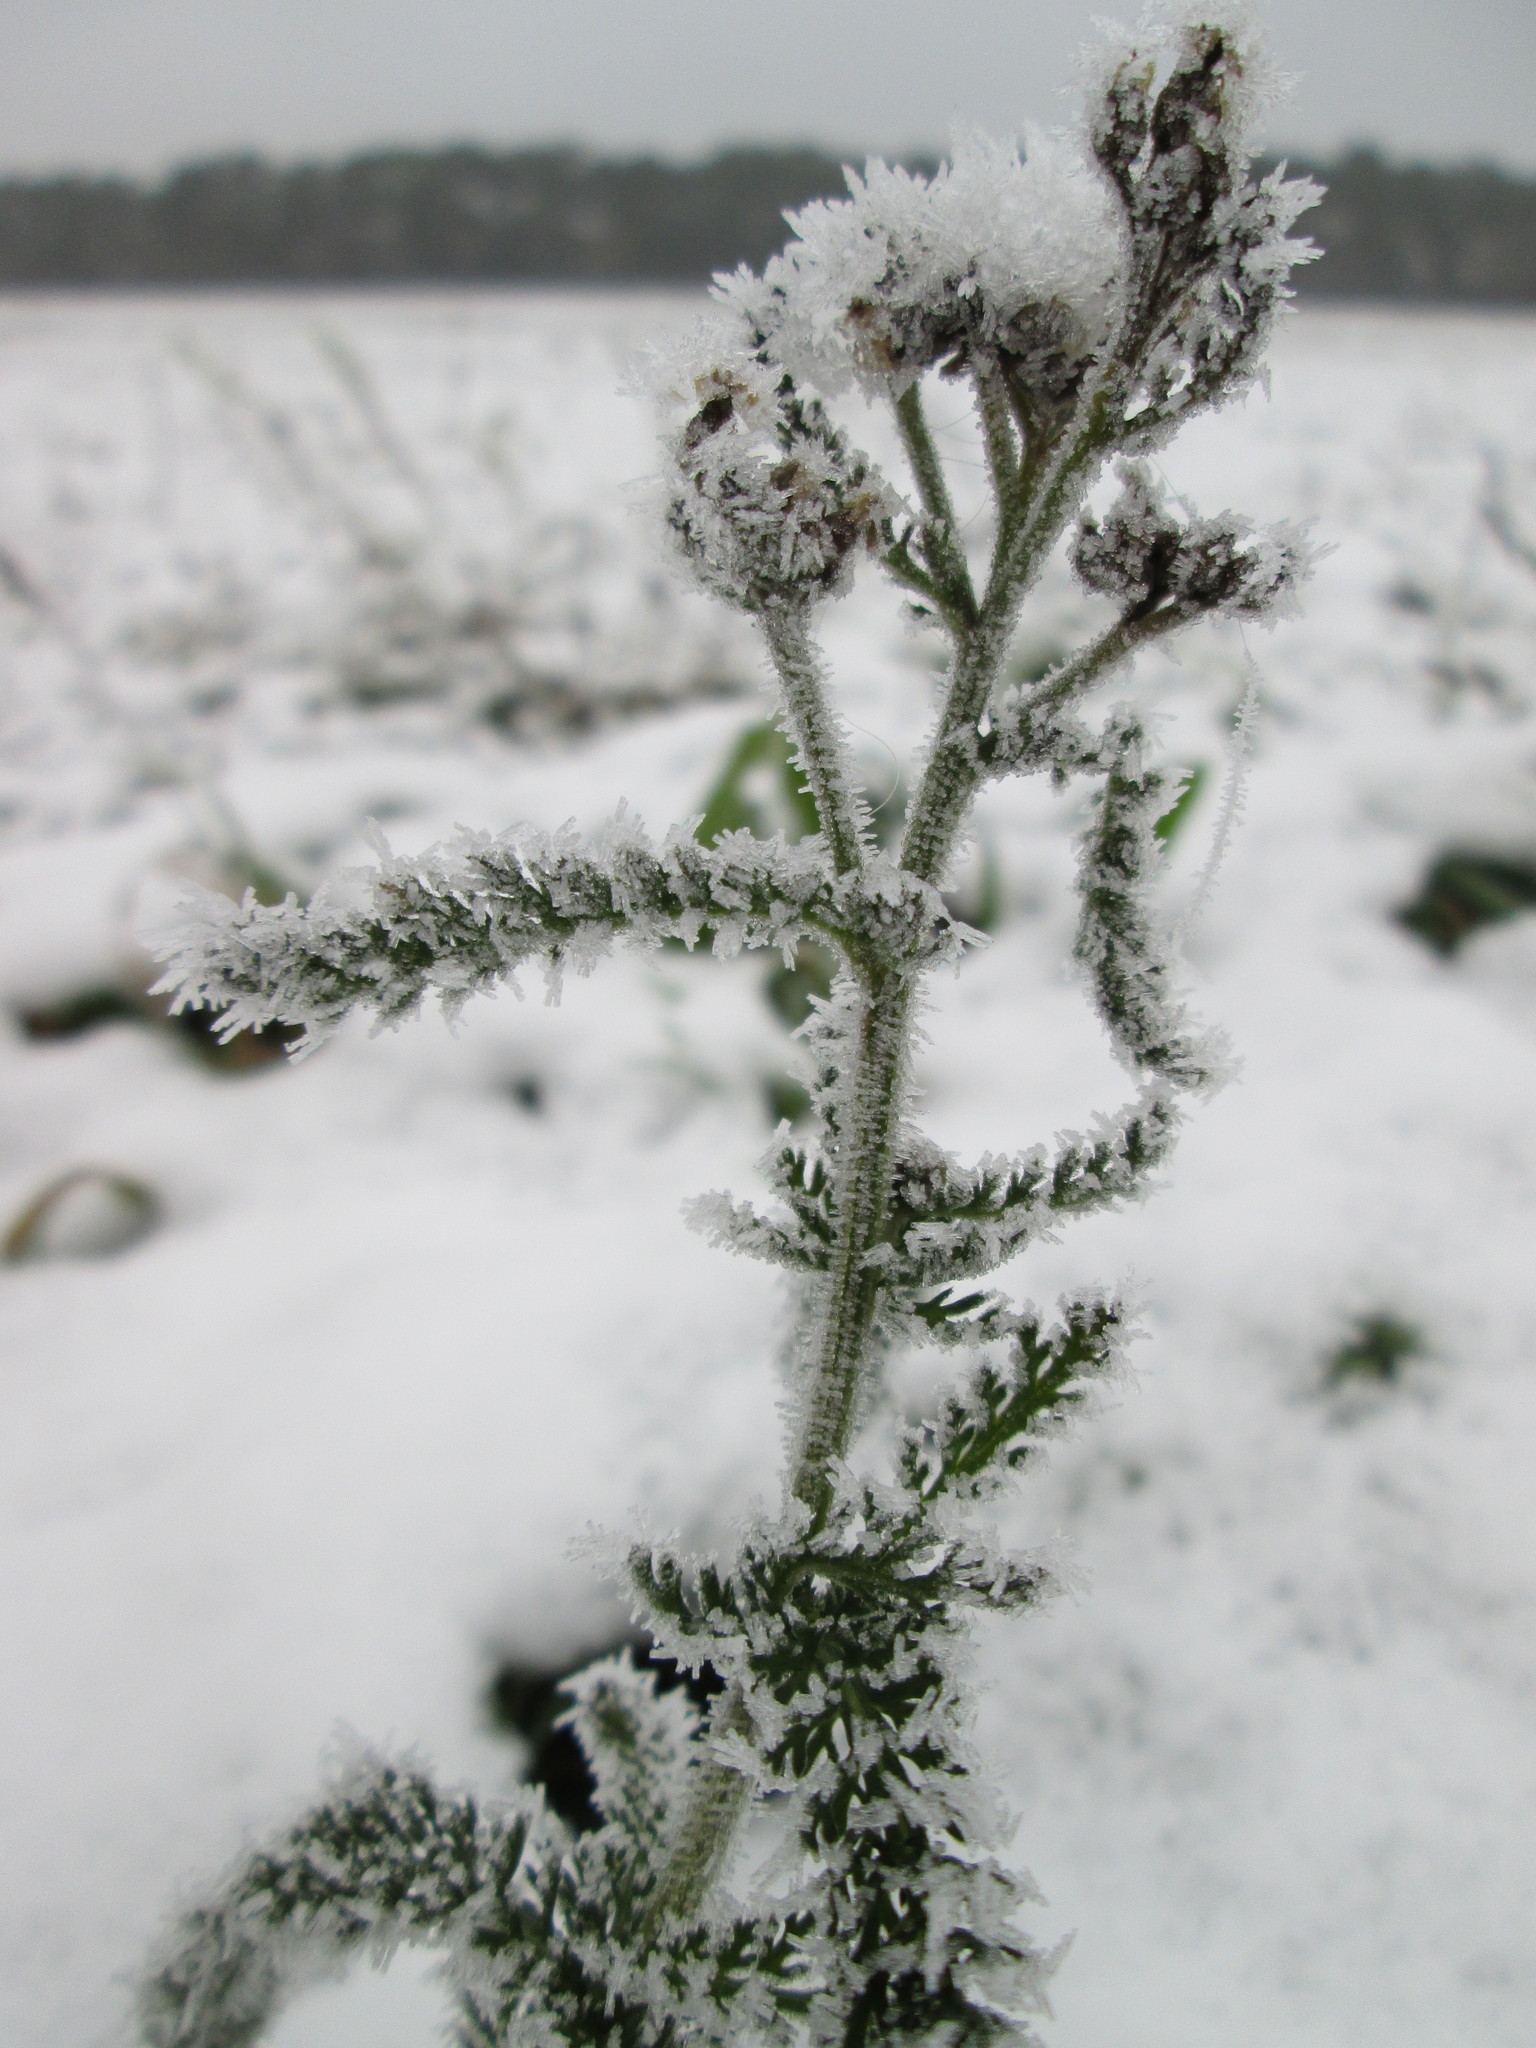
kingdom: Plantae
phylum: Tracheophyta
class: Magnoliopsida
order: Asterales
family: Asteraceae
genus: Achillea
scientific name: Achillea millefolium
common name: Yarrow
